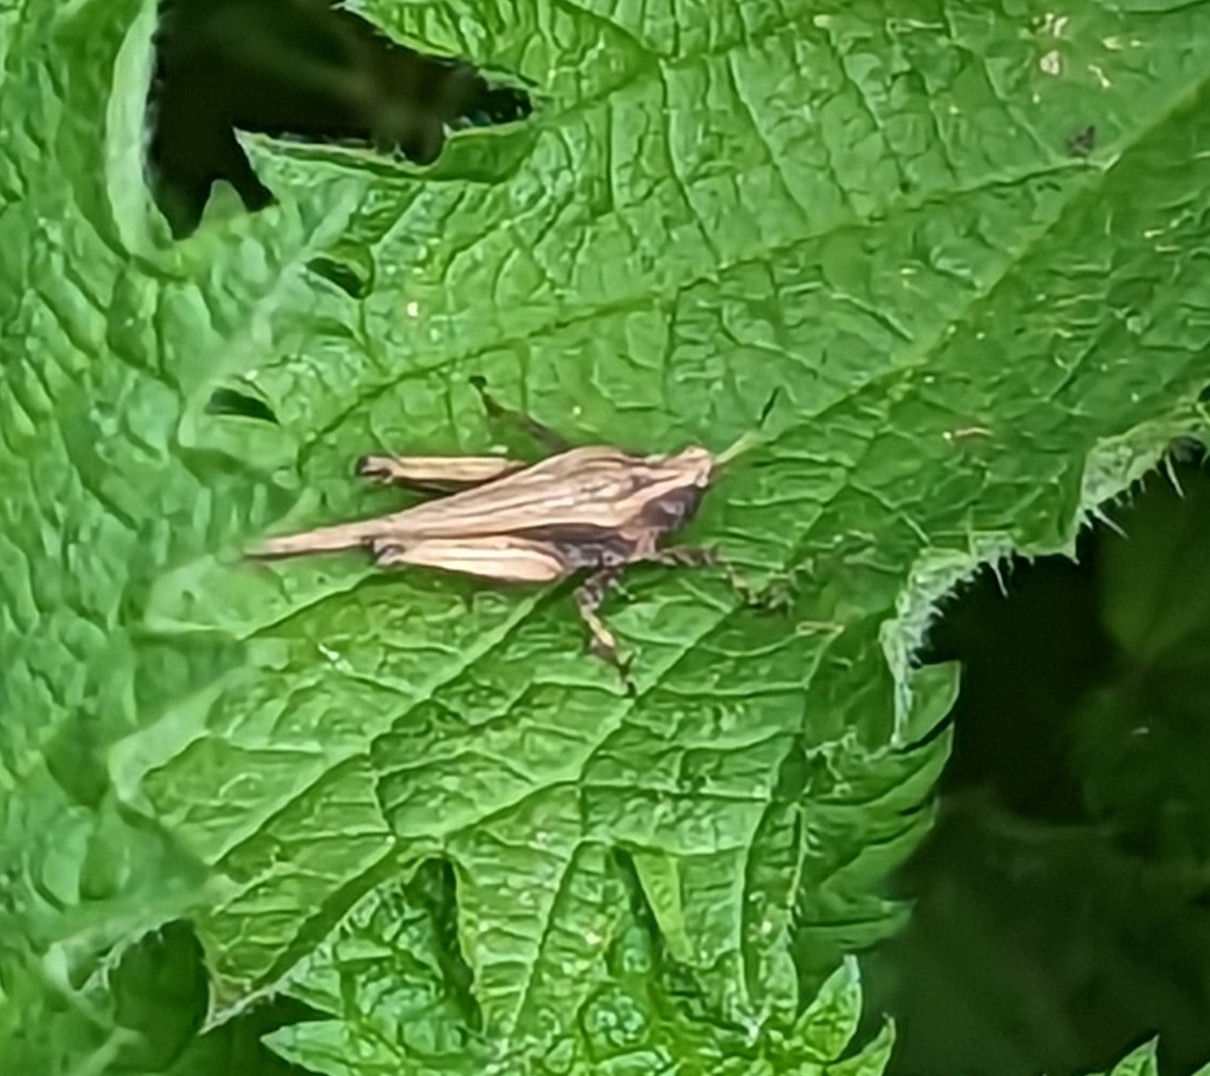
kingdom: Animalia
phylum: Arthropoda
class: Insecta
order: Orthoptera
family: Tetrigidae
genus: Tetrix
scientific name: Tetrix subulata
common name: Slender ground-hopper
